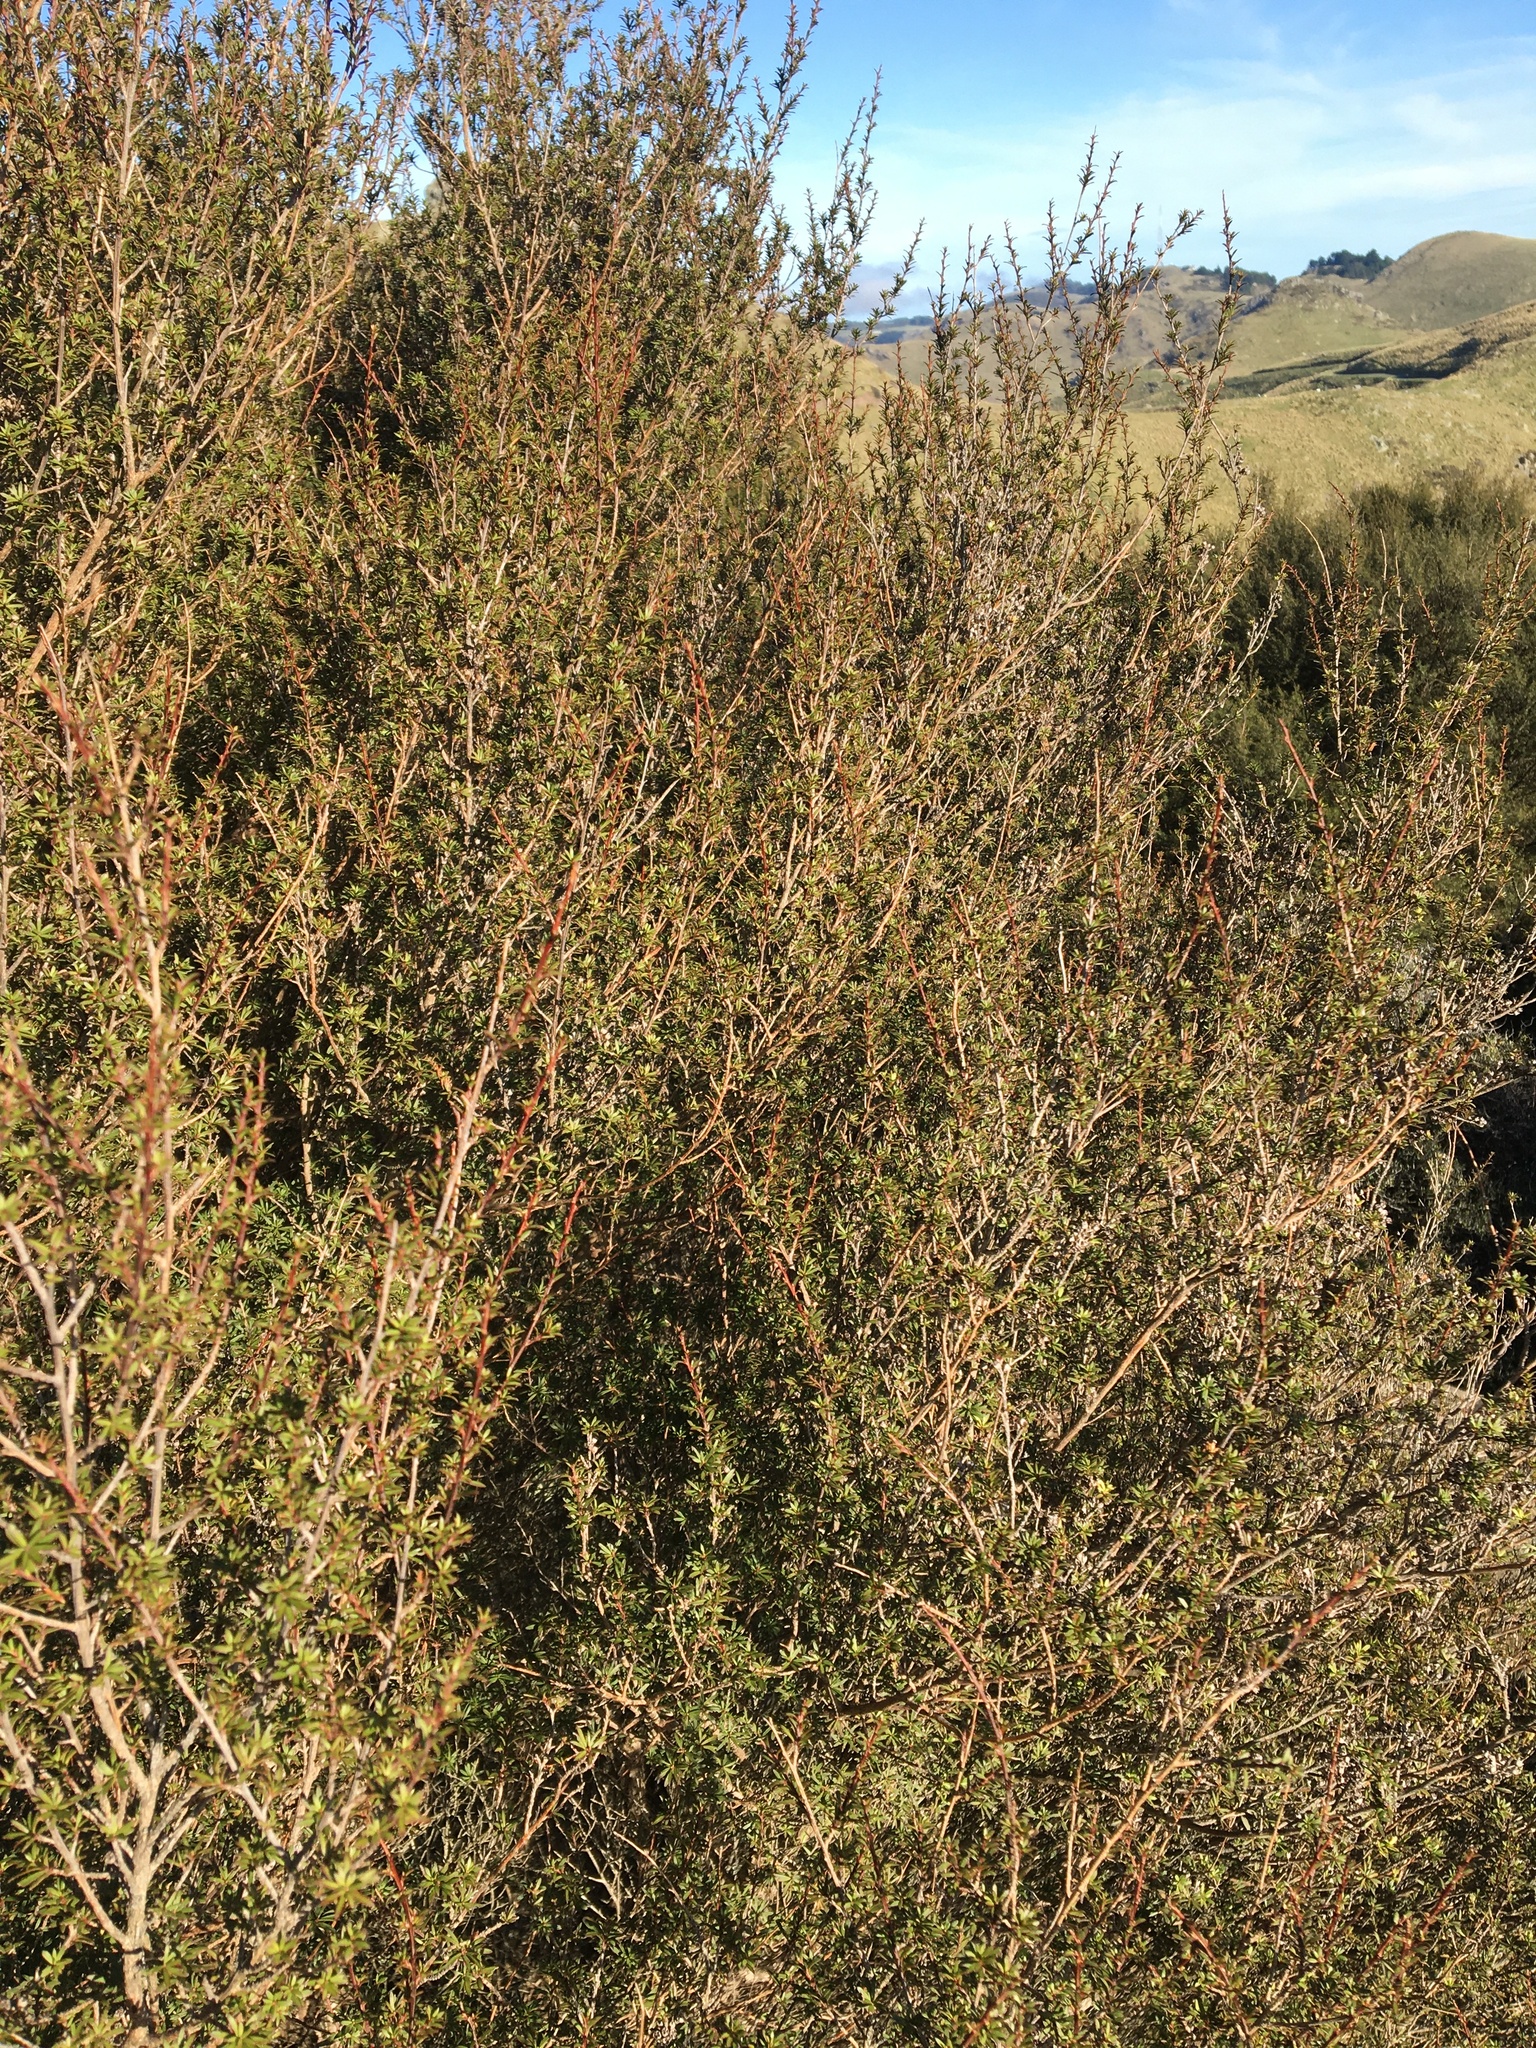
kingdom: Plantae
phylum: Tracheophyta
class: Magnoliopsida
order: Myrtales
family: Myrtaceae
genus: Kunzea
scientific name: Kunzea ericoides
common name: Burgan
